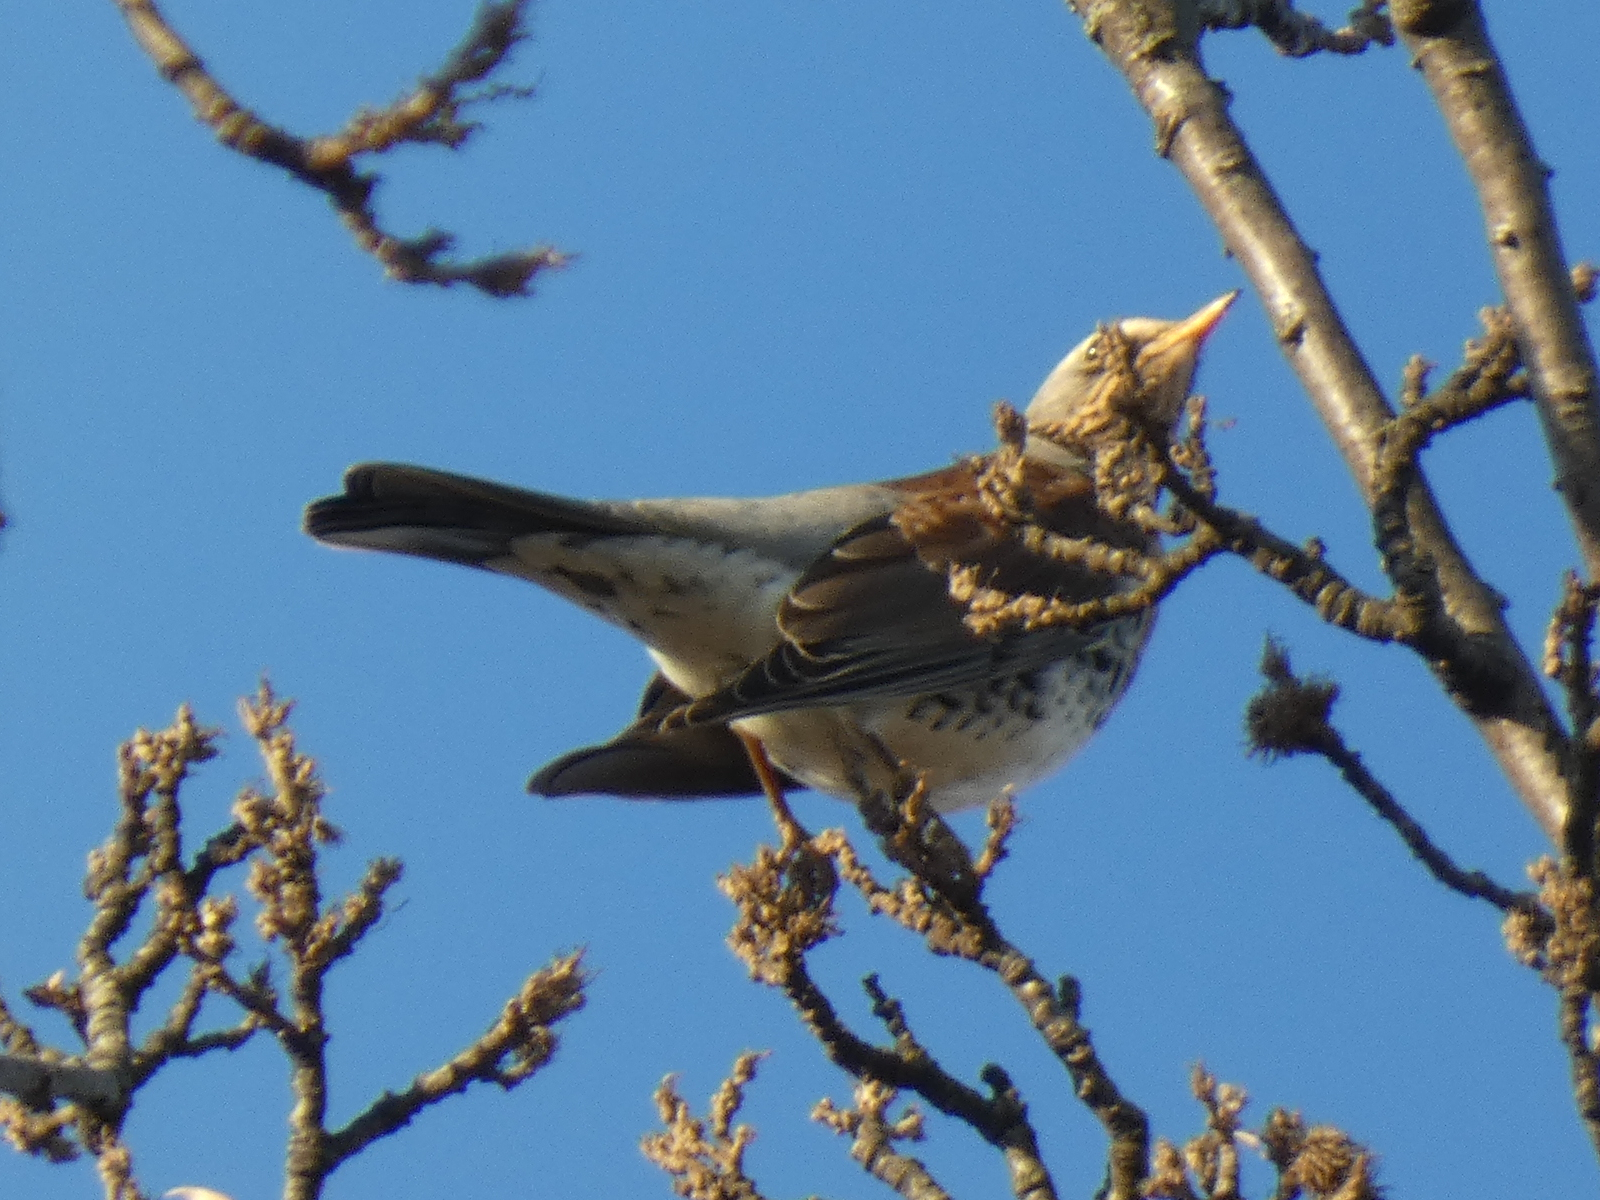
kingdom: Animalia
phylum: Chordata
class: Aves
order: Passeriformes
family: Turdidae
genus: Turdus
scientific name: Turdus pilaris
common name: Fieldfare
